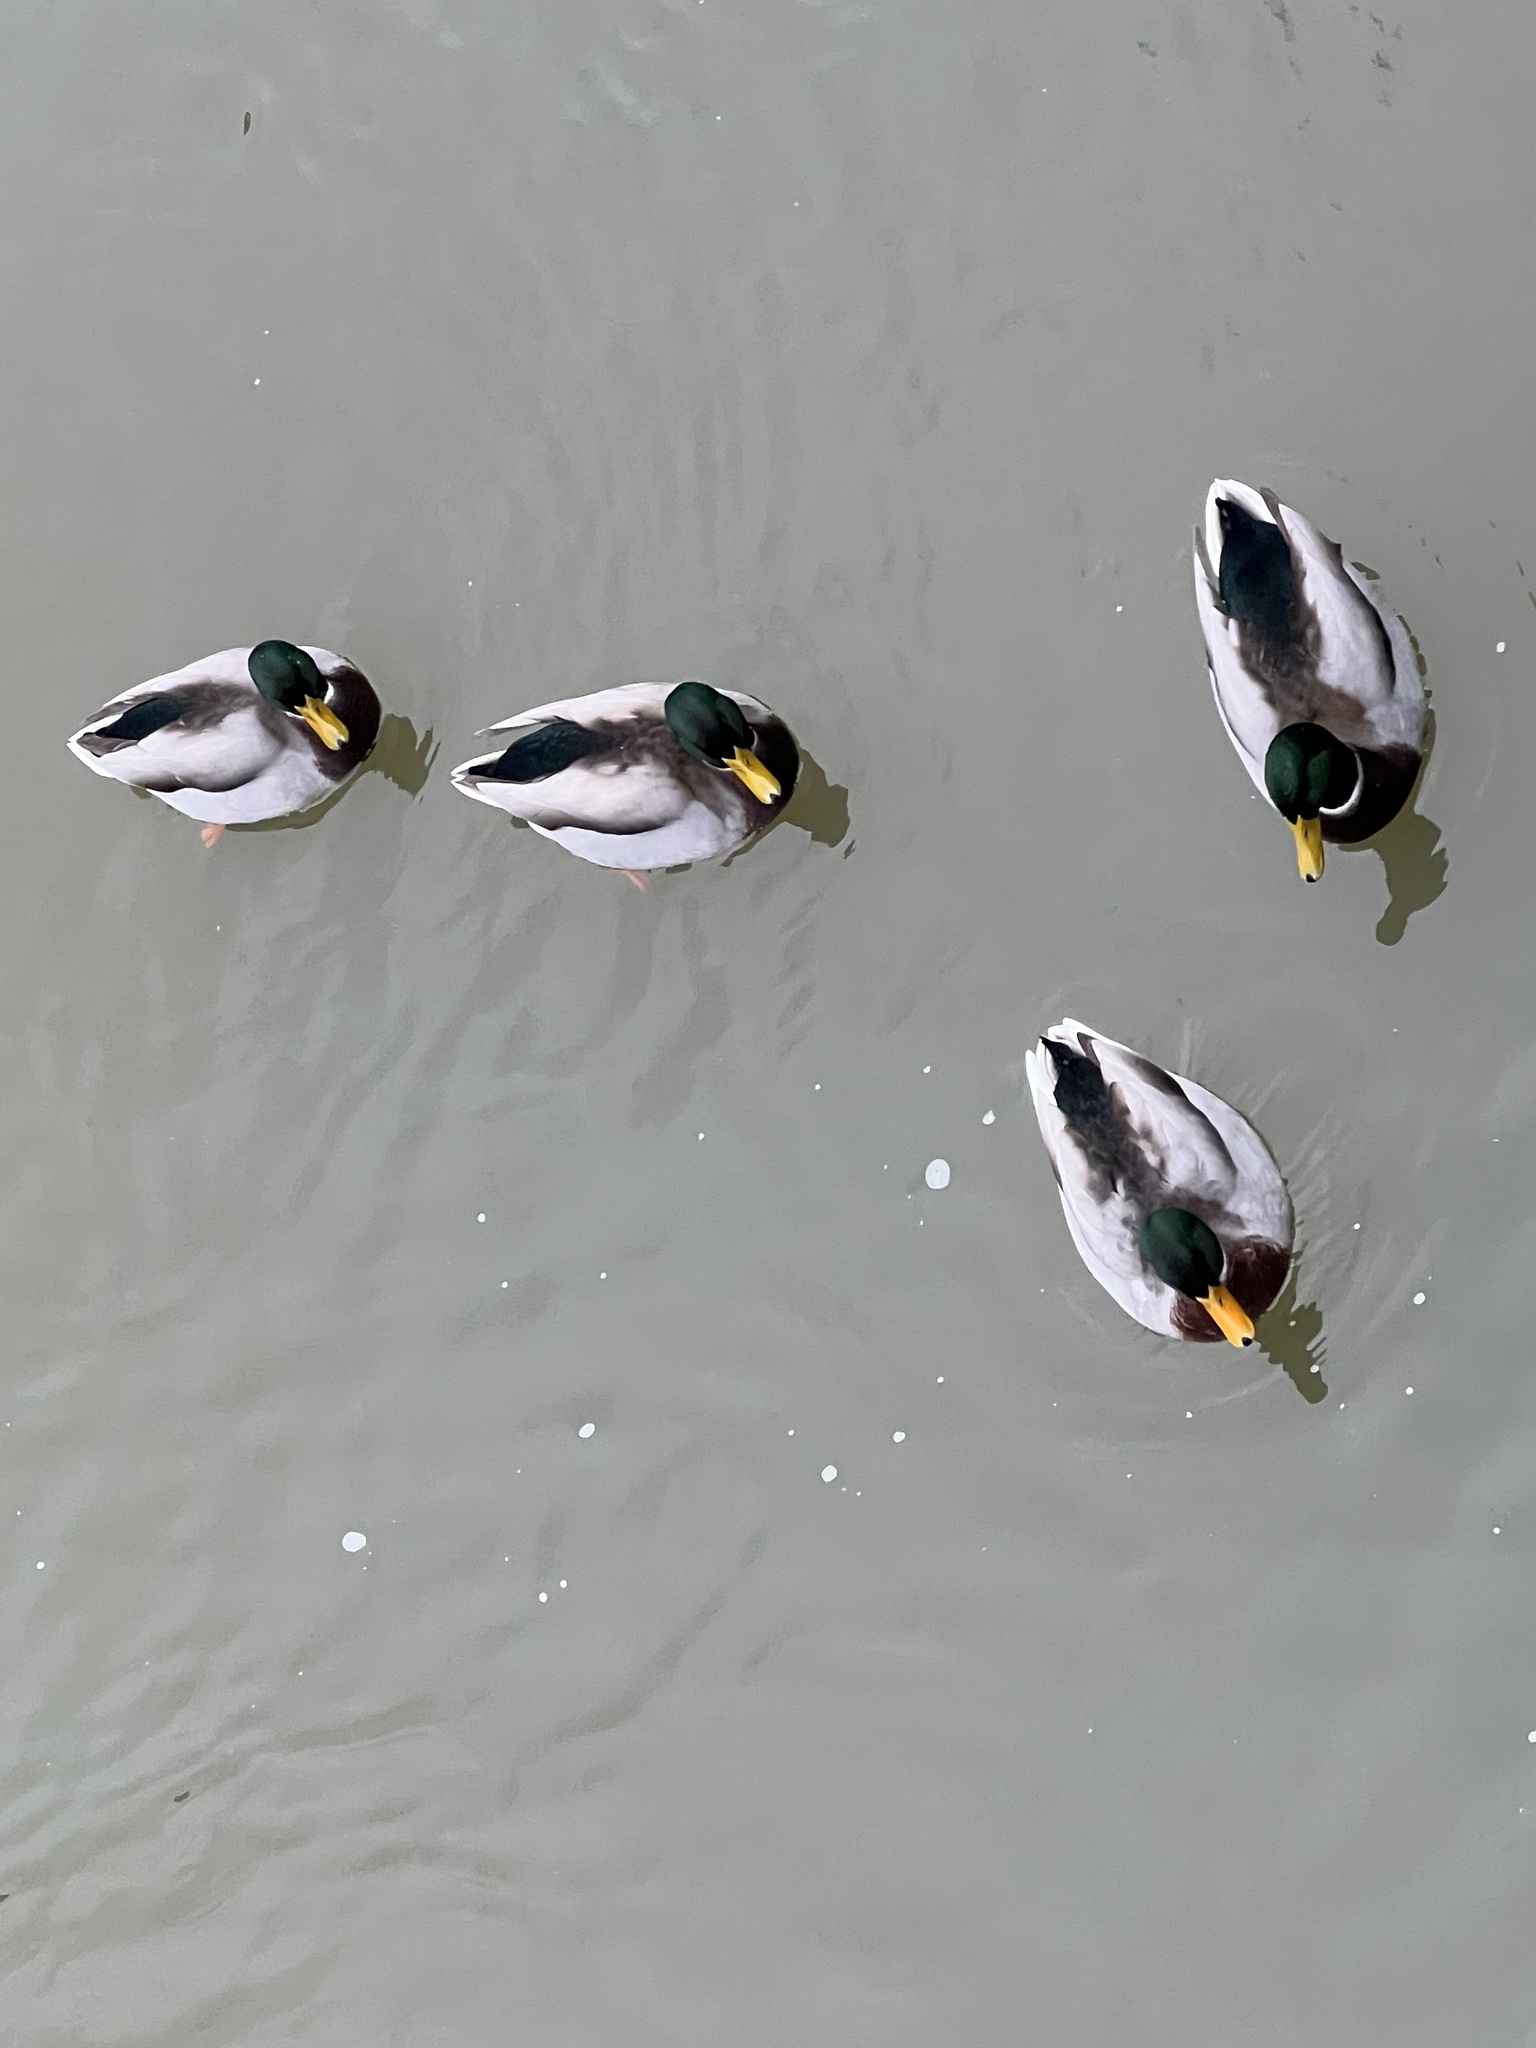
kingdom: Animalia
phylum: Chordata
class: Aves
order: Anseriformes
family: Anatidae
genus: Anas
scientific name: Anas platyrhynchos
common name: Mallard
